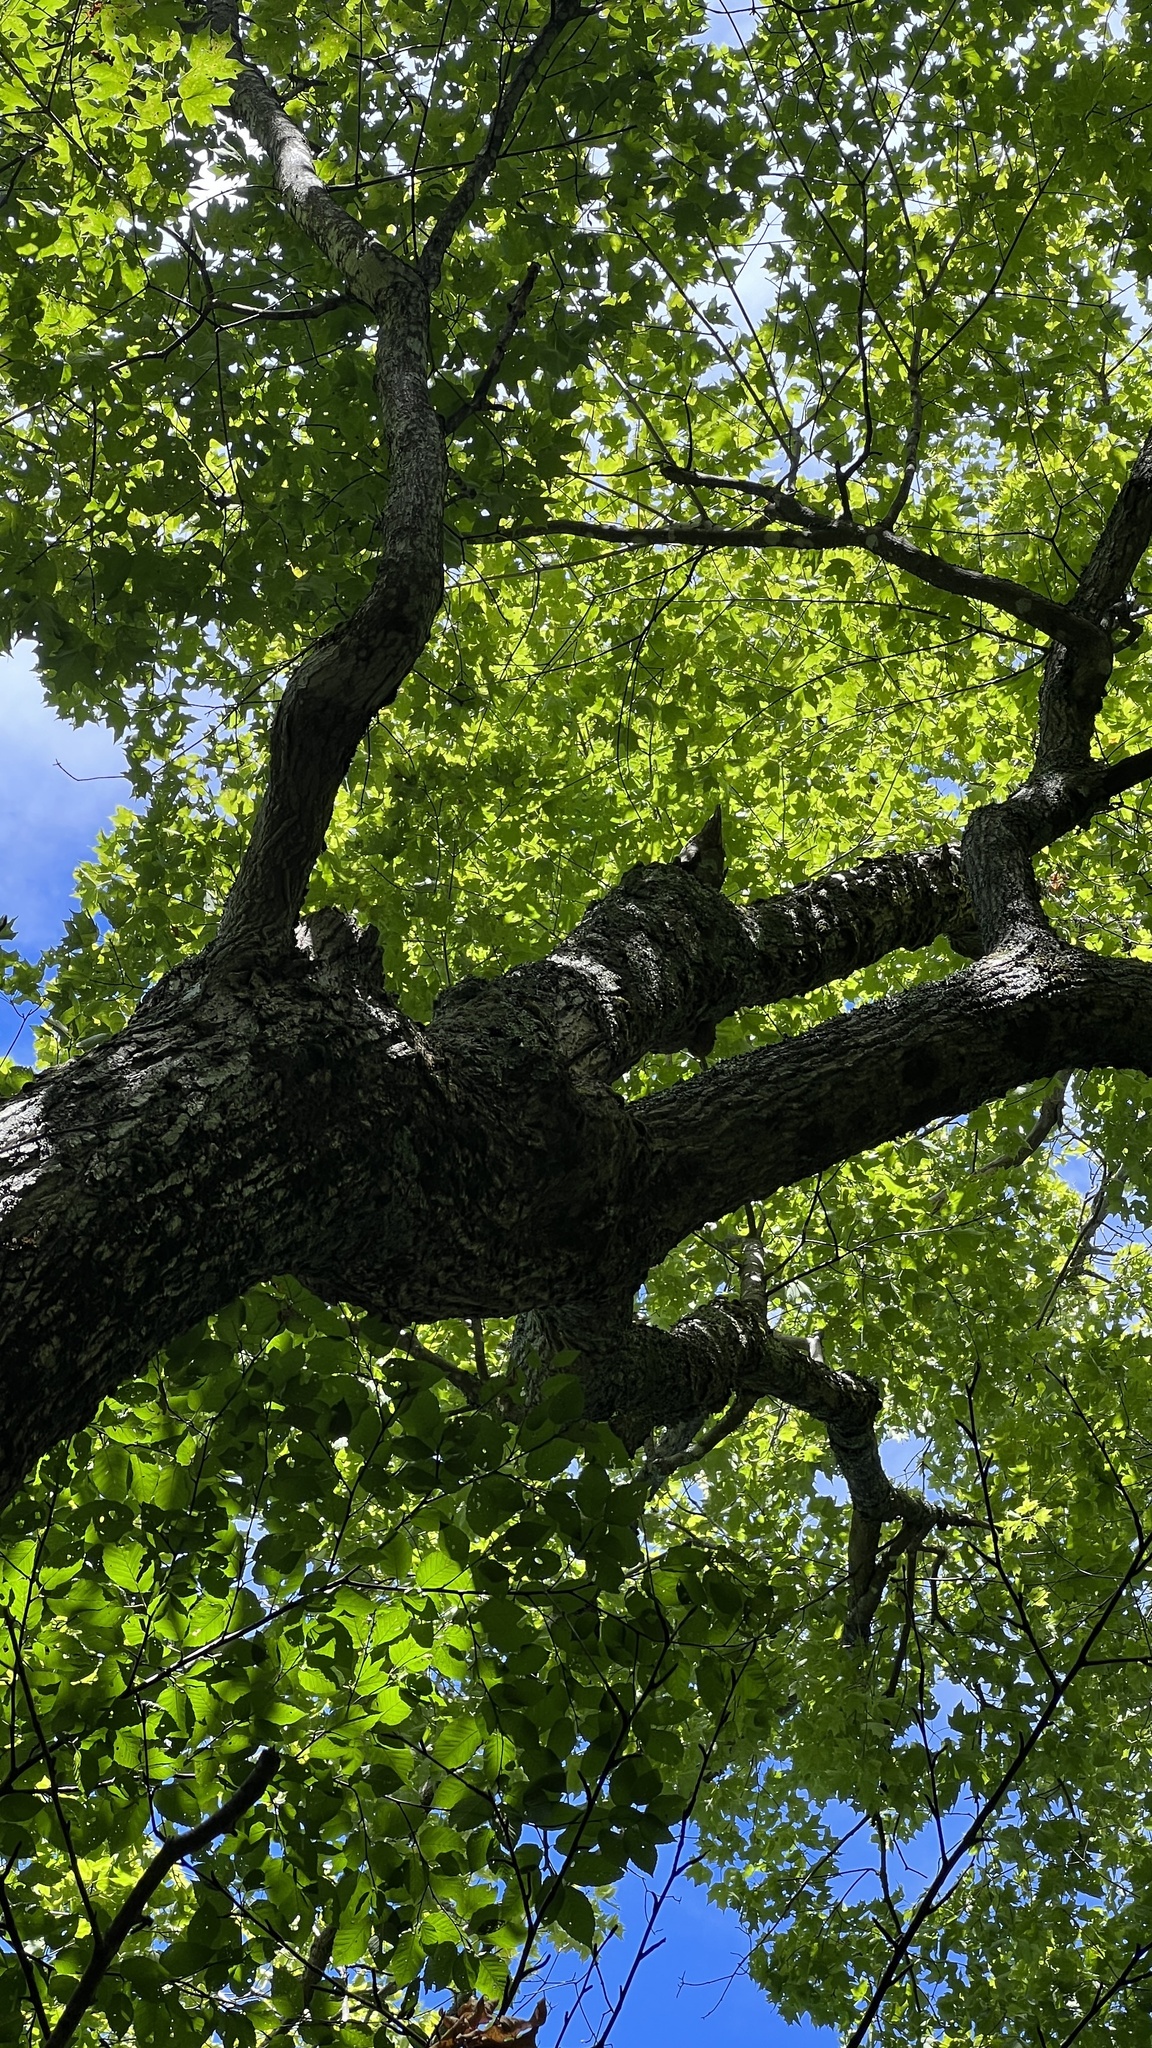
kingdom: Plantae
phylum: Tracheophyta
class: Magnoliopsida
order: Sapindales
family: Sapindaceae
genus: Acer
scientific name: Acer saccharum
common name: Sugar maple
